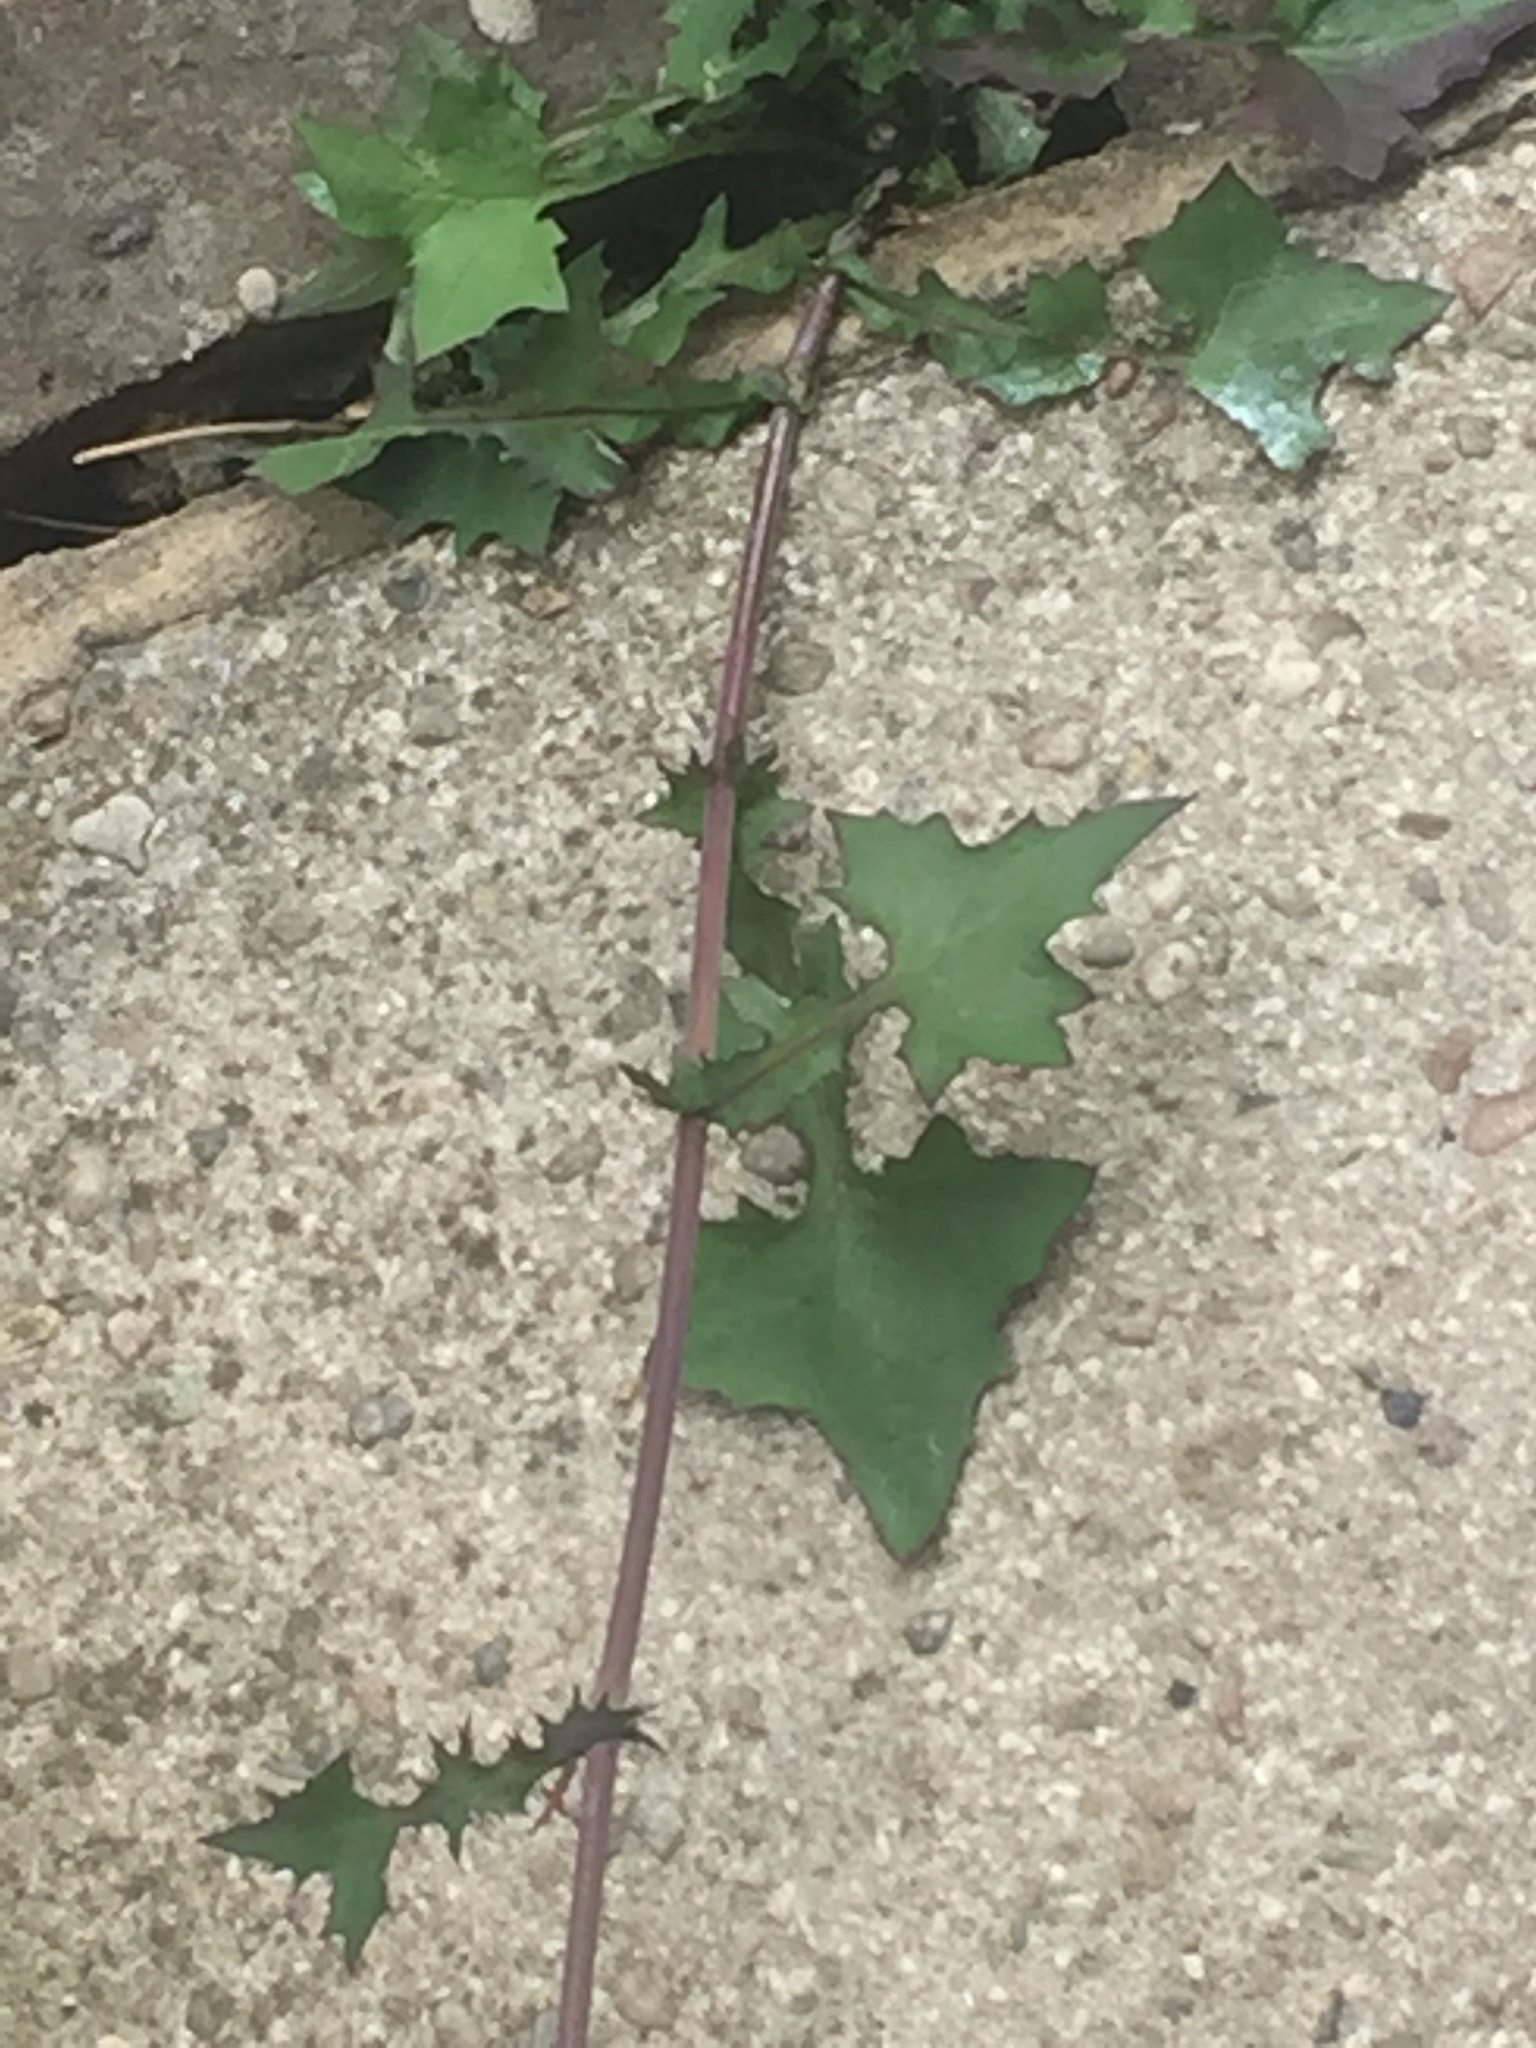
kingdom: Plantae
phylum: Tracheophyta
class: Magnoliopsida
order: Asterales
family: Asteraceae
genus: Mycelis
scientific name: Mycelis muralis
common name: Wall lettuce
